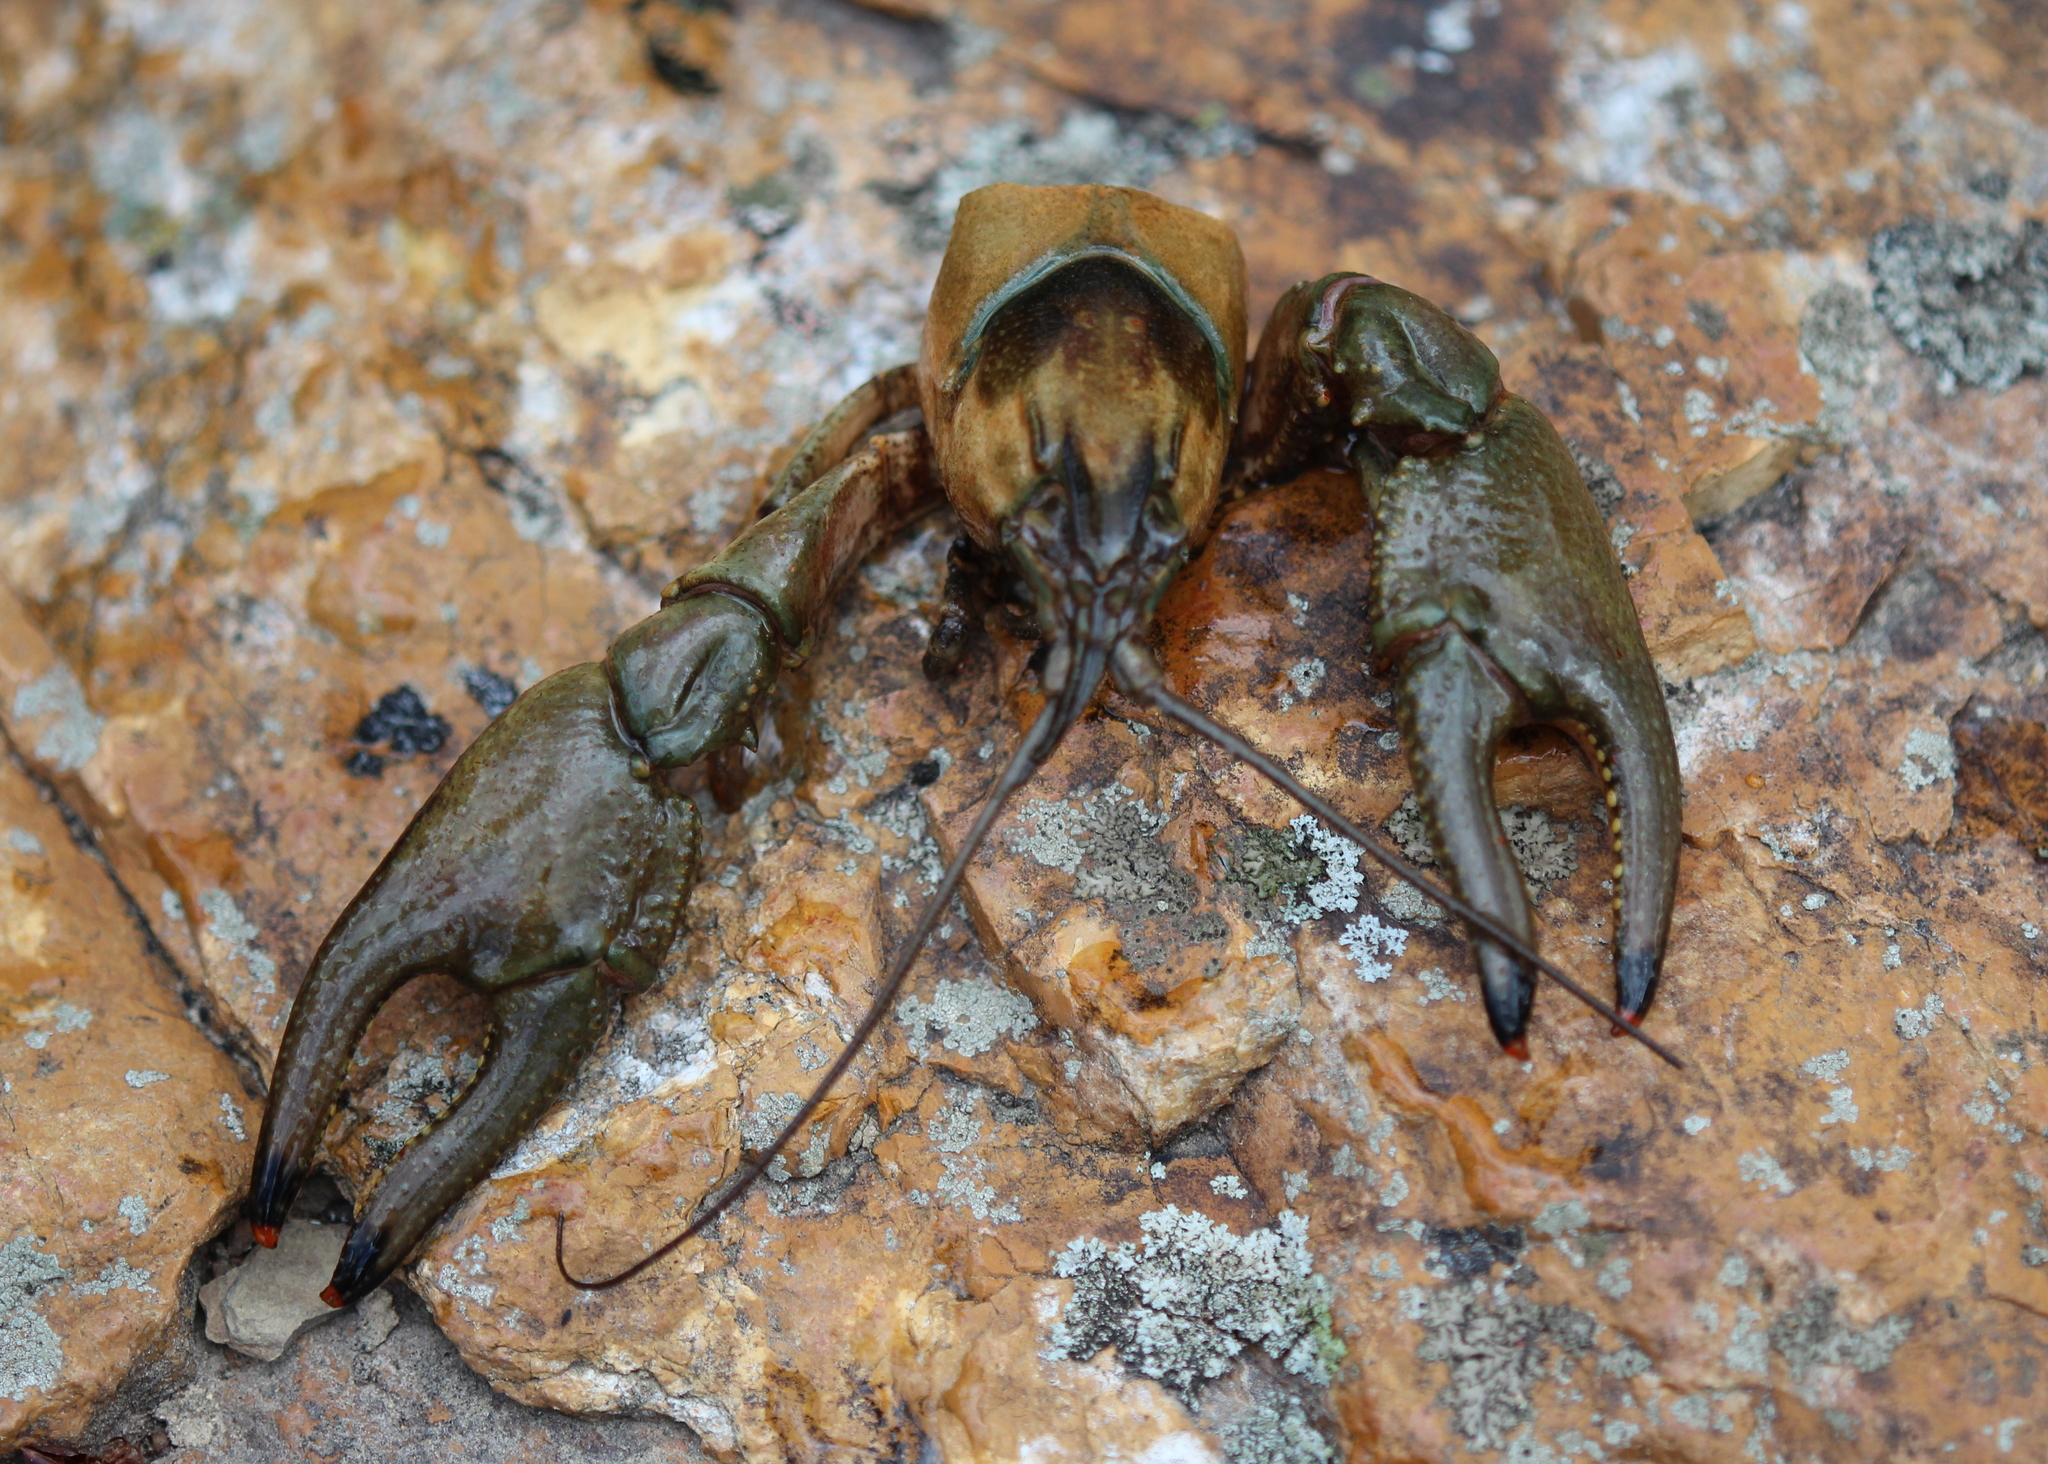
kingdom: Animalia
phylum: Arthropoda
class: Malacostraca
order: Decapoda
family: Cambaridae
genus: Faxonius
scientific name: Faxonius neglectus
